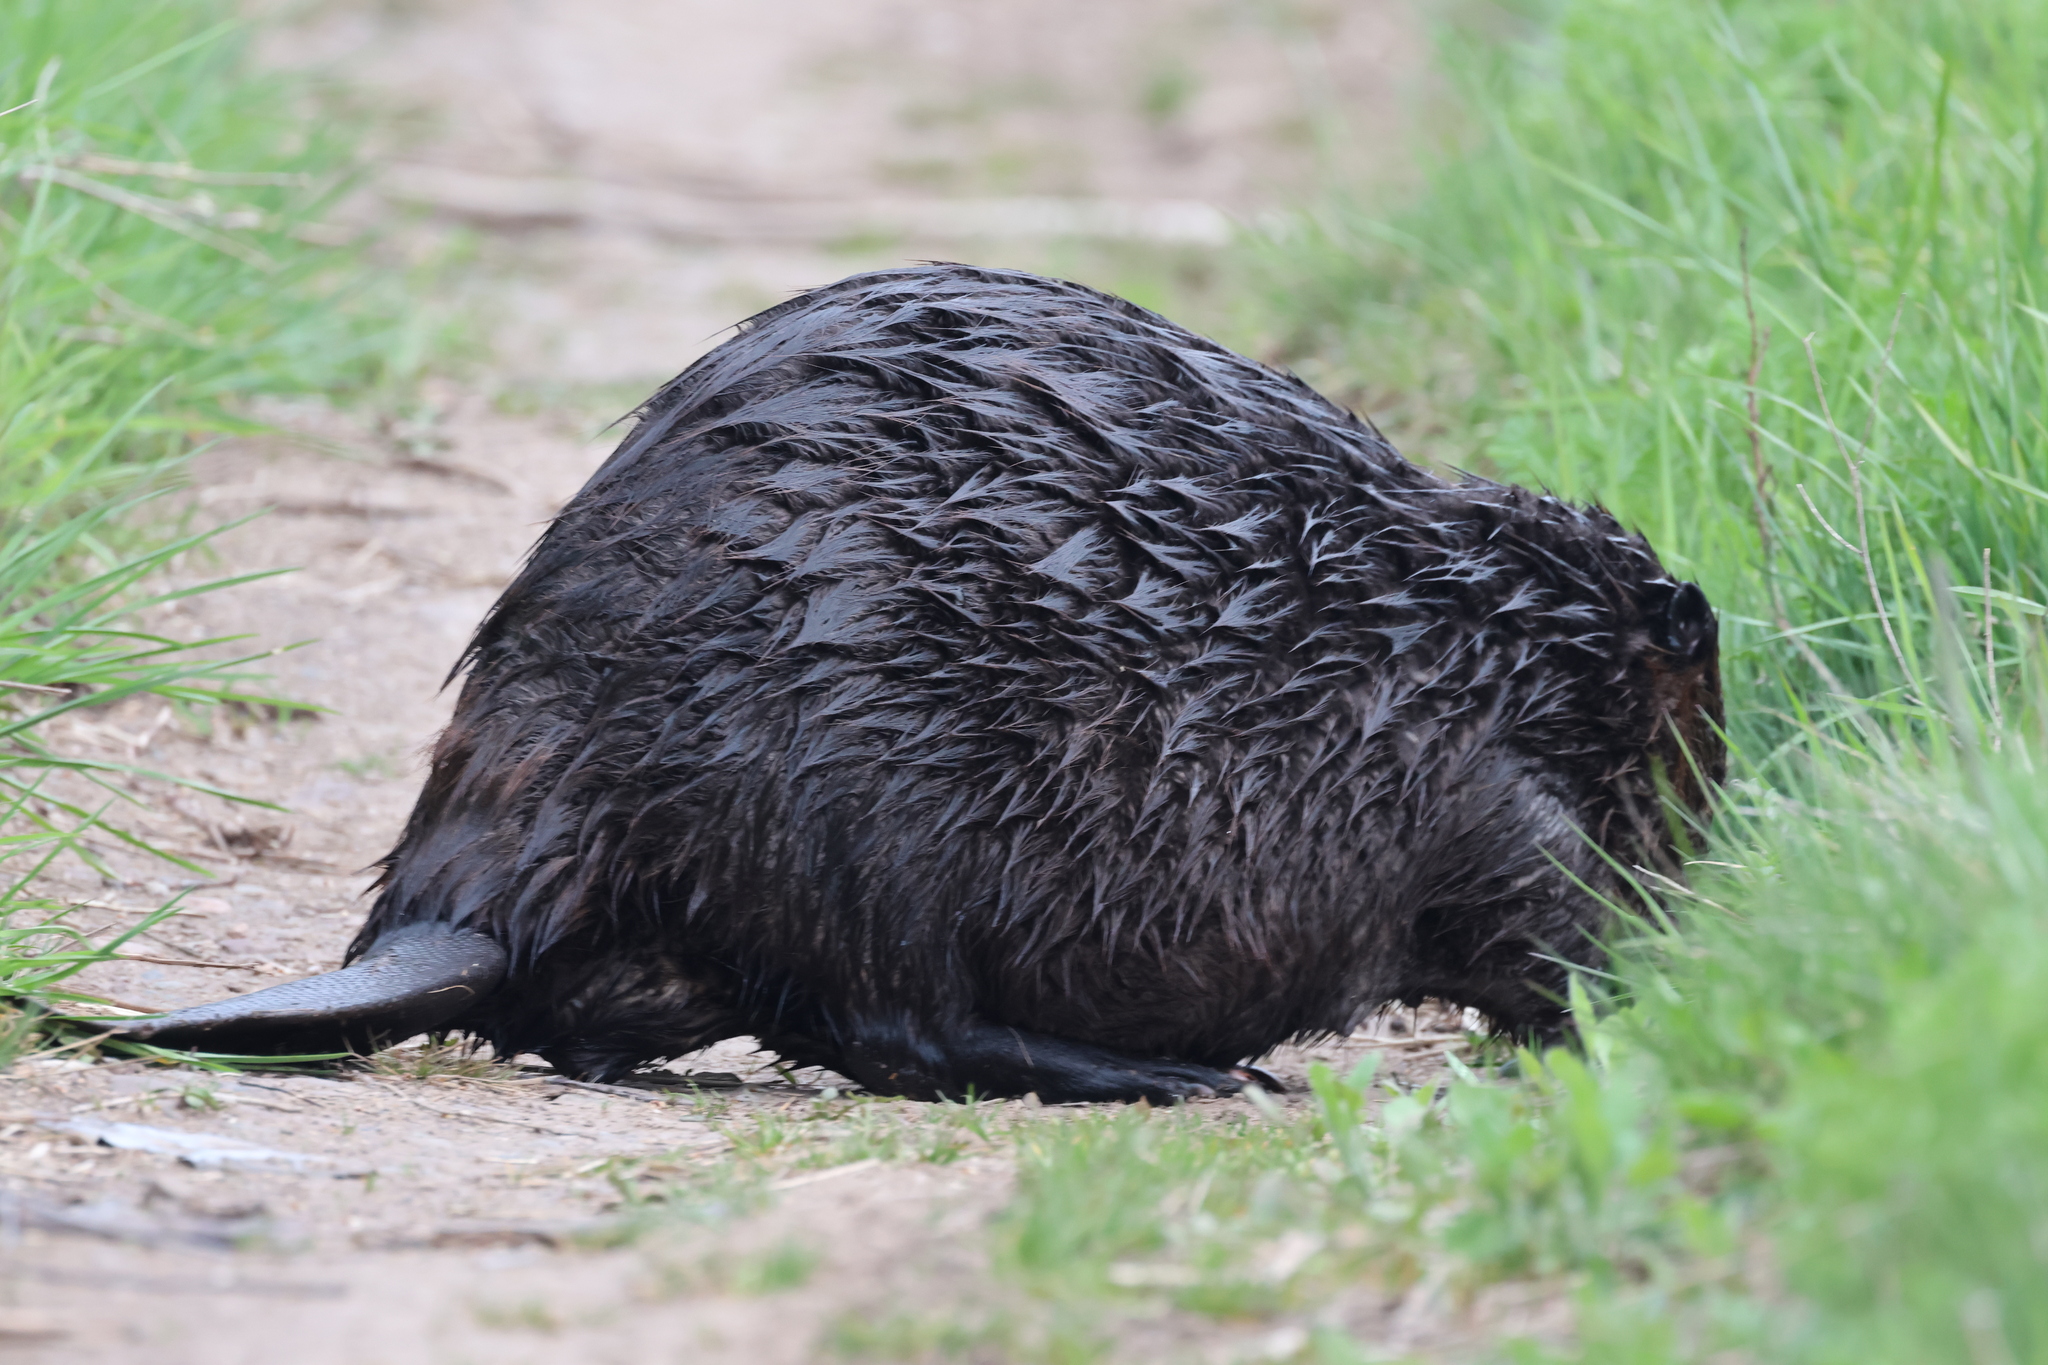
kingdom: Animalia
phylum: Chordata
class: Mammalia
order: Rodentia
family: Castoridae
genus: Castor
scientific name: Castor canadensis
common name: American beaver
